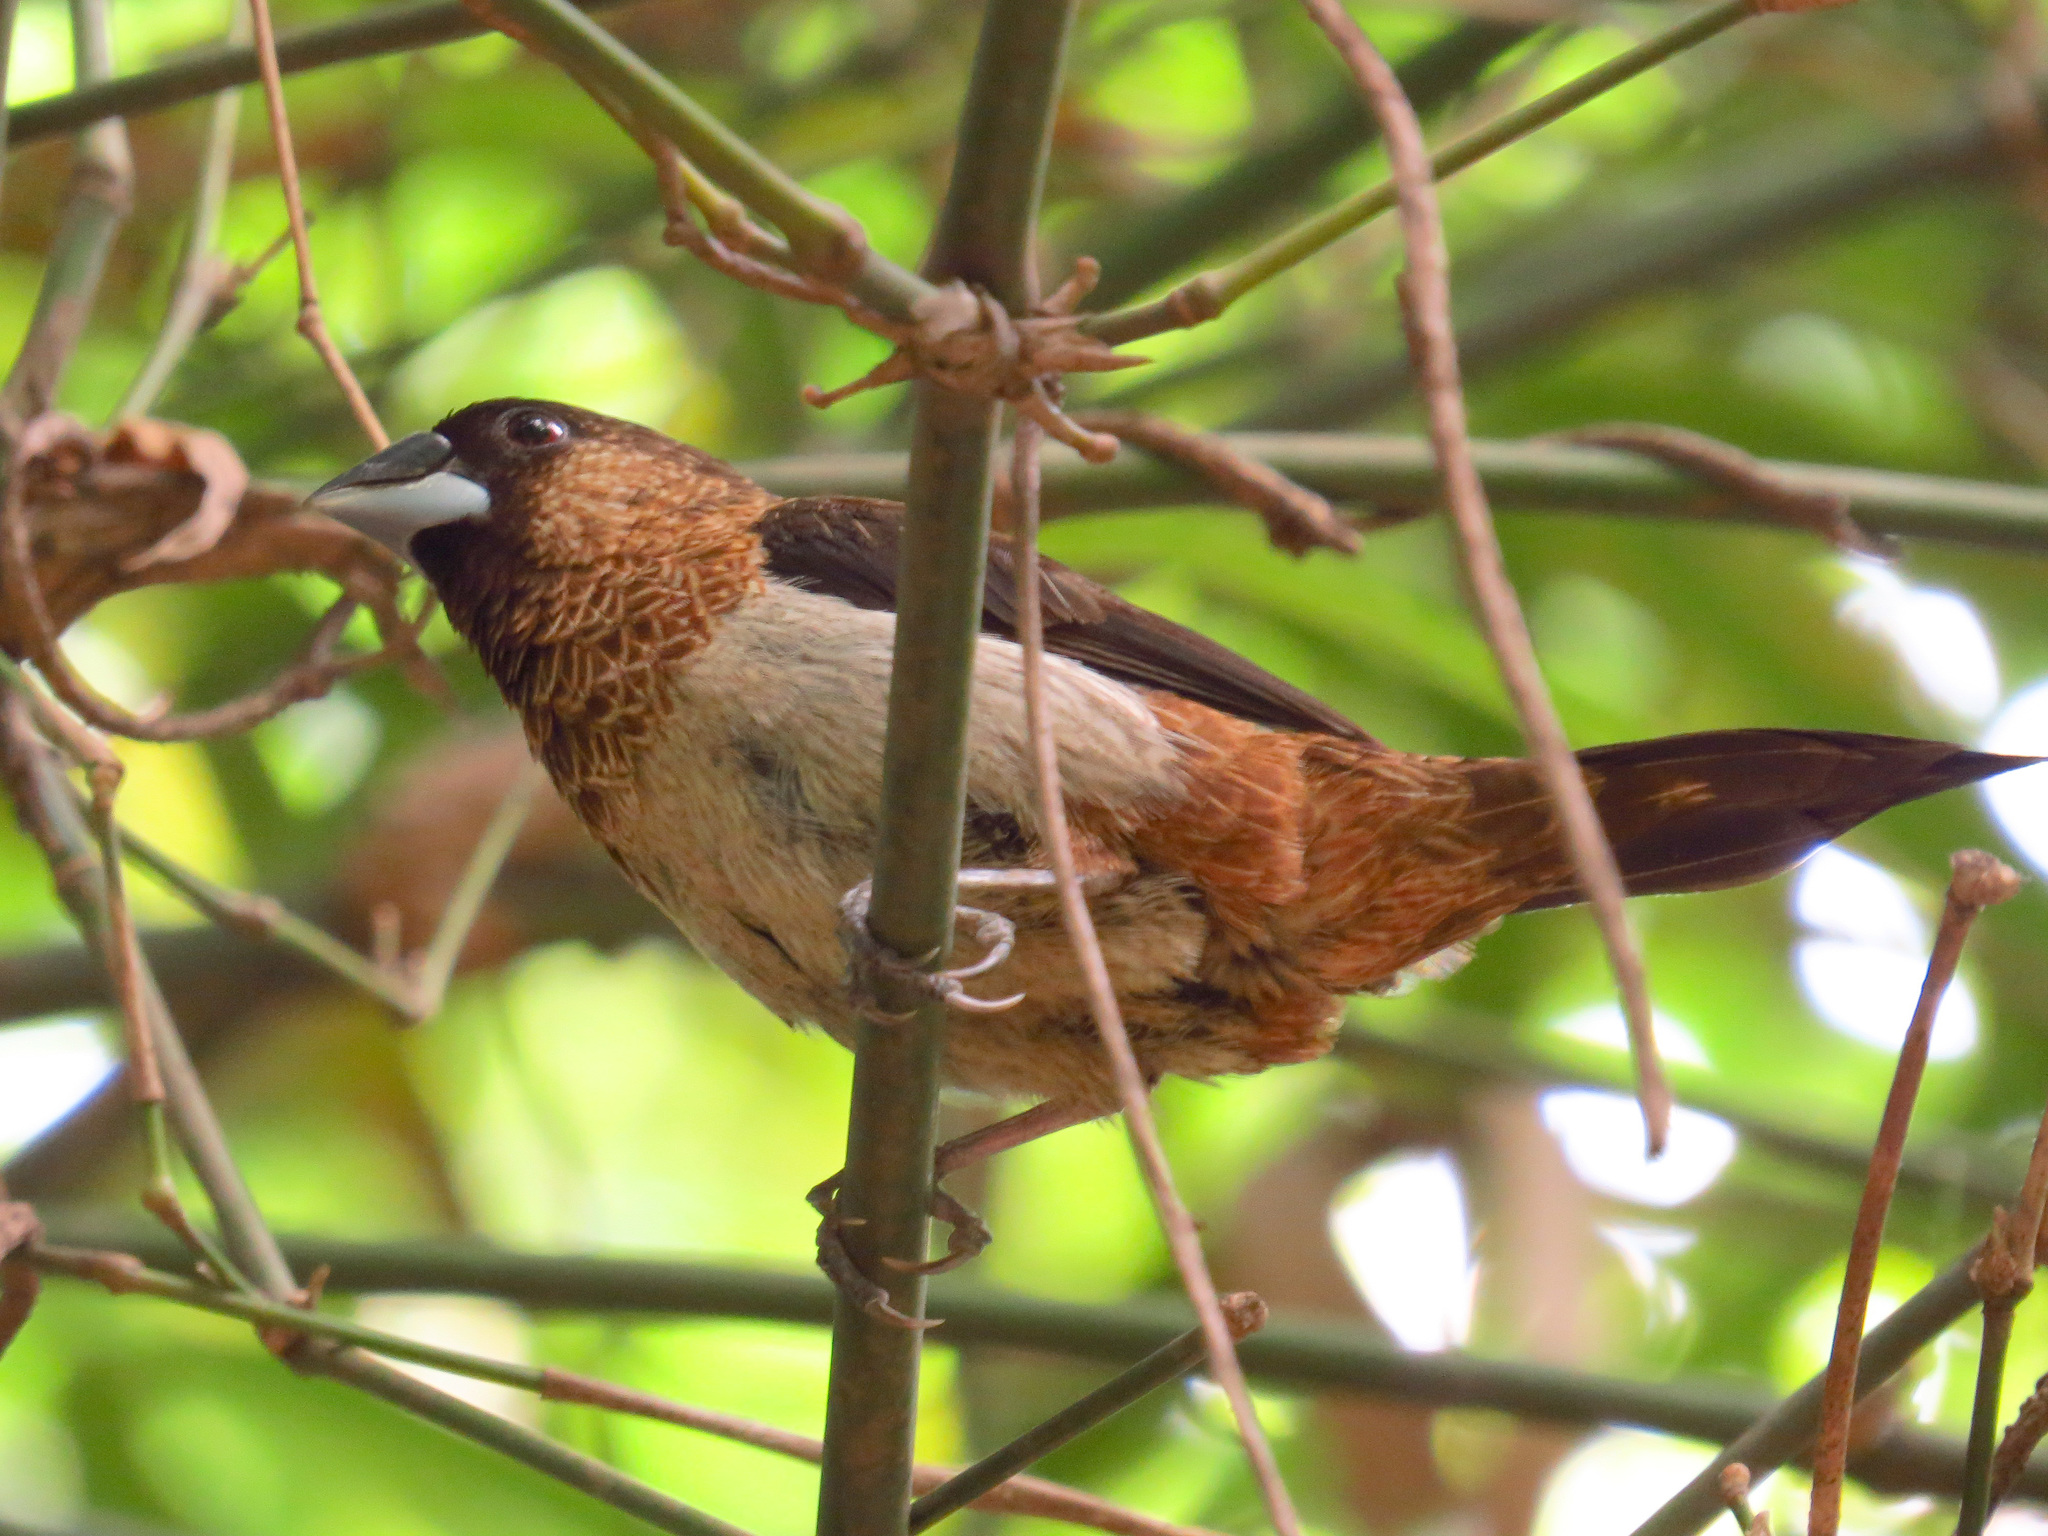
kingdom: Animalia
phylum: Chordata
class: Aves
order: Passeriformes
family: Estrildidae
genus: Lonchura
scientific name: Lonchura striata
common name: White-rumped munia
